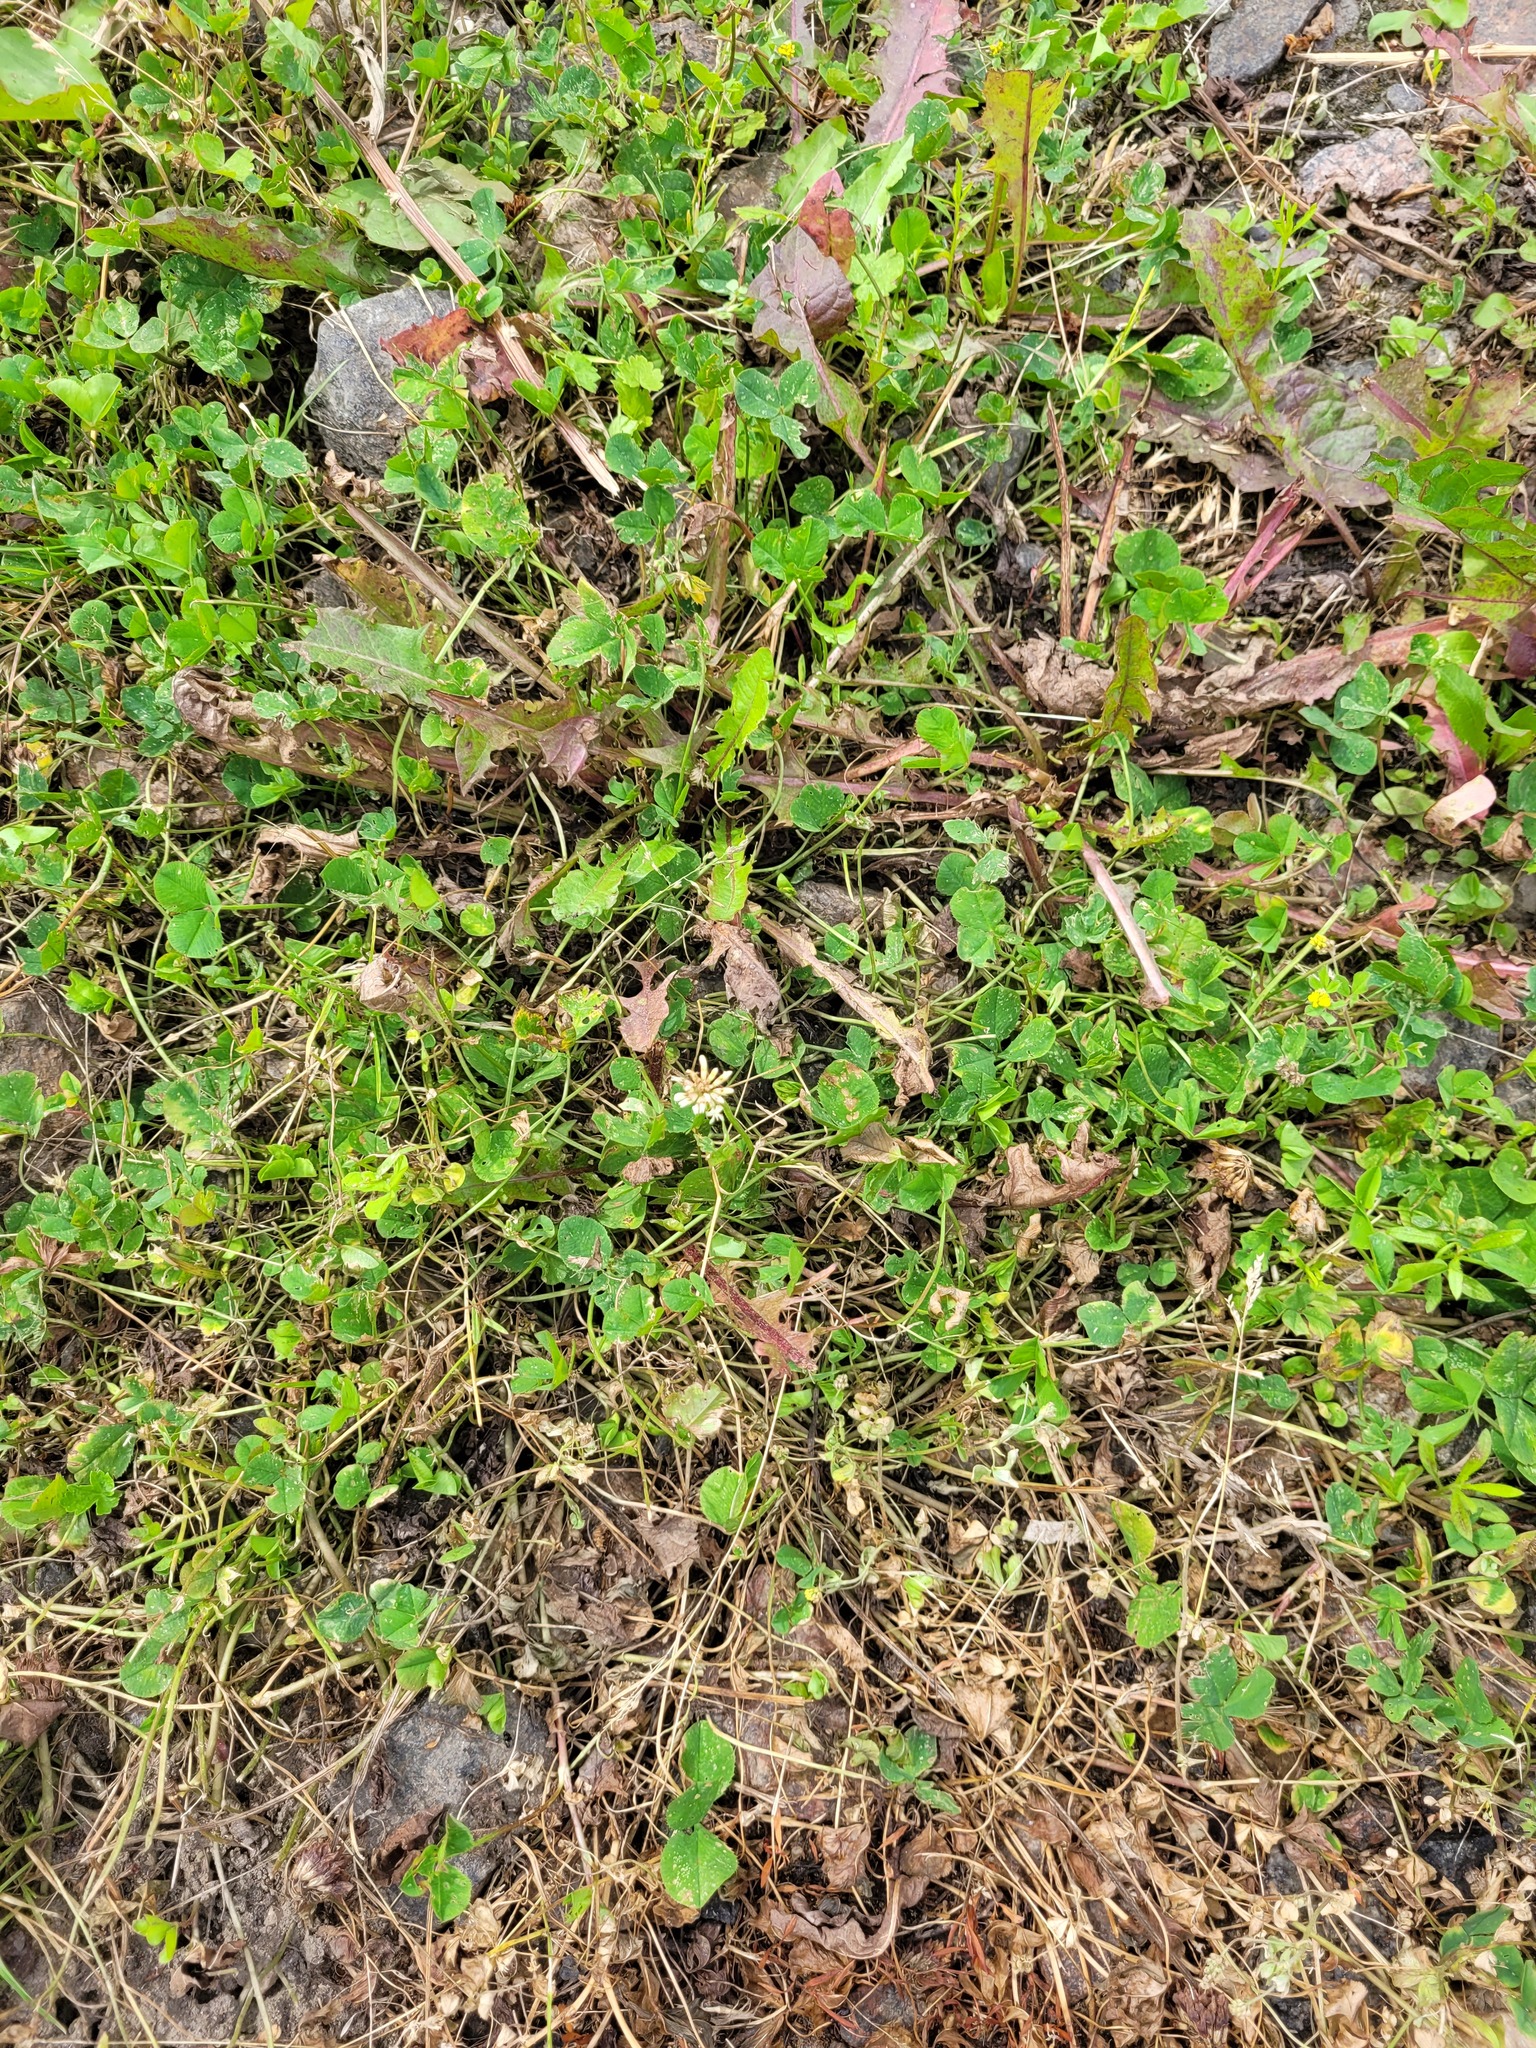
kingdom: Plantae
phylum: Tracheophyta
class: Magnoliopsida
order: Fabales
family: Fabaceae
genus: Trifolium
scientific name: Trifolium repens
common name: White clover
